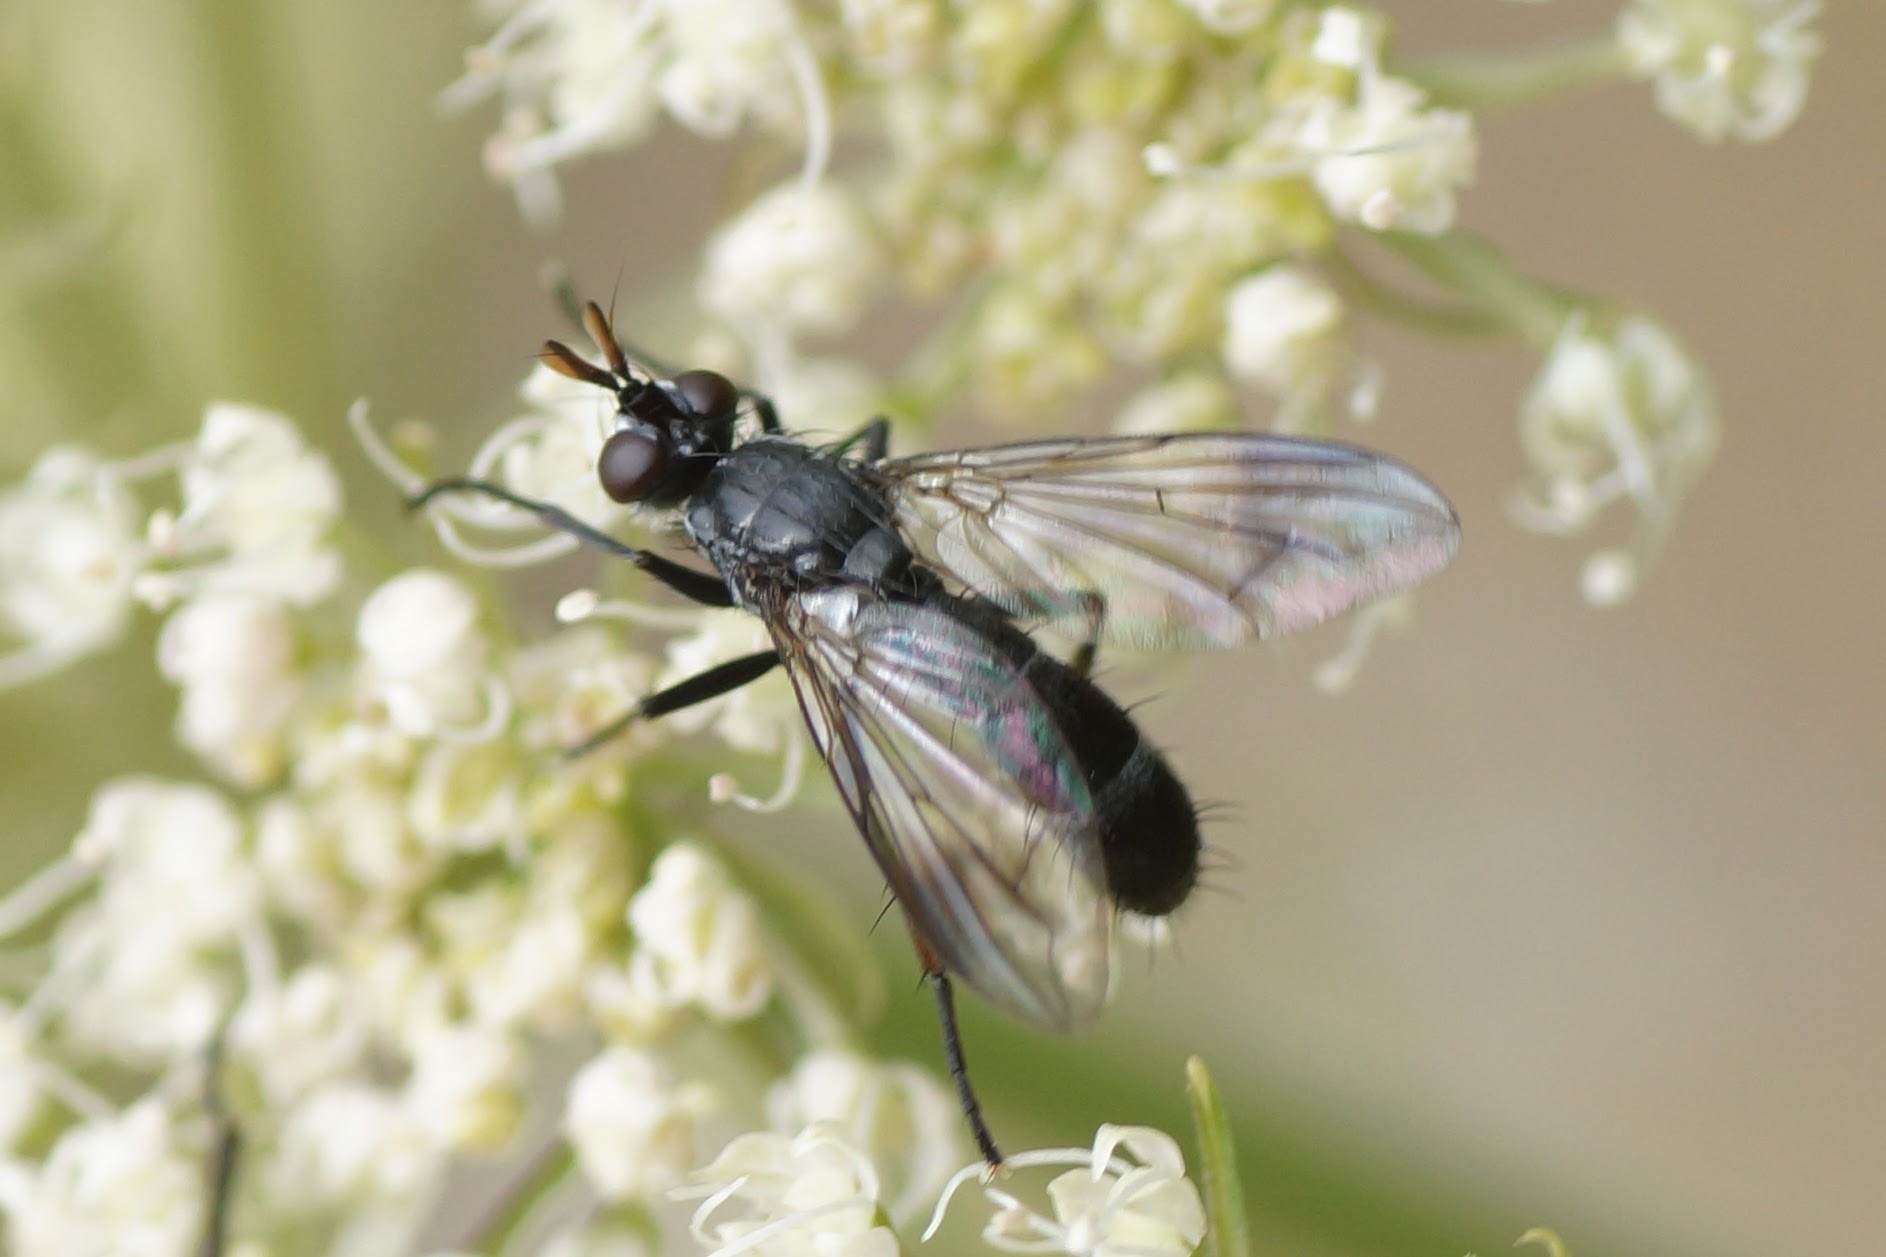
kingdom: Animalia
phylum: Arthropoda
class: Insecta
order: Diptera
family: Tachinidae
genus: Lophosia
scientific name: Lophosia fasciata
